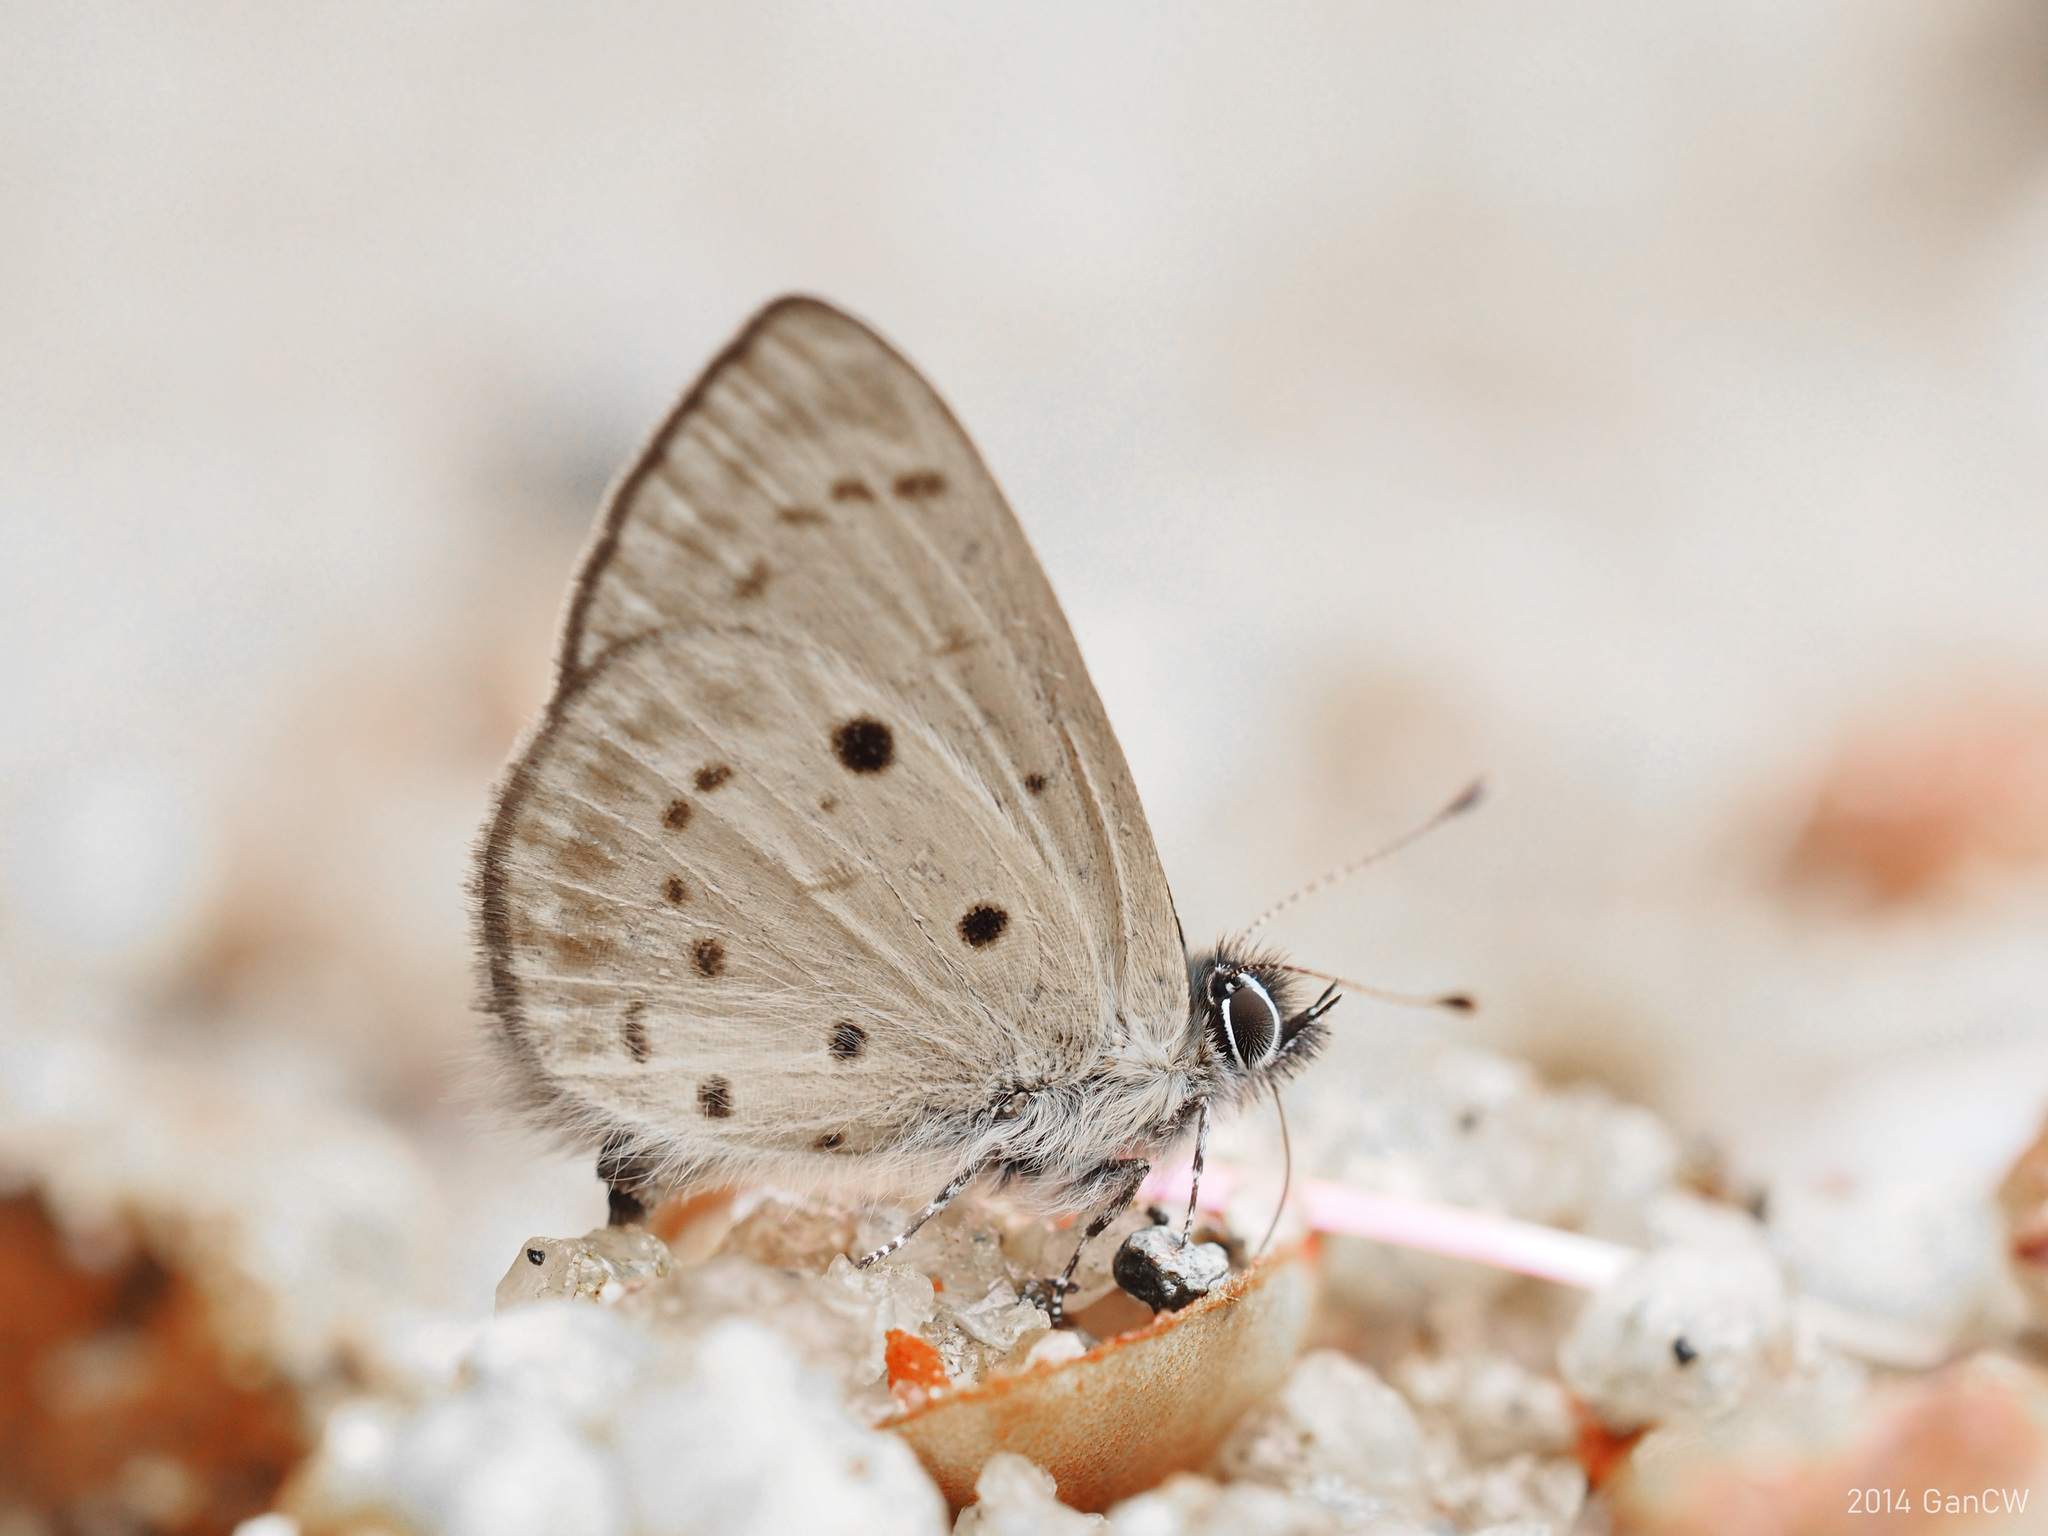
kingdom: Animalia
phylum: Arthropoda
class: Insecta
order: Lepidoptera
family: Lycaenidae
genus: Una
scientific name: Una usta
